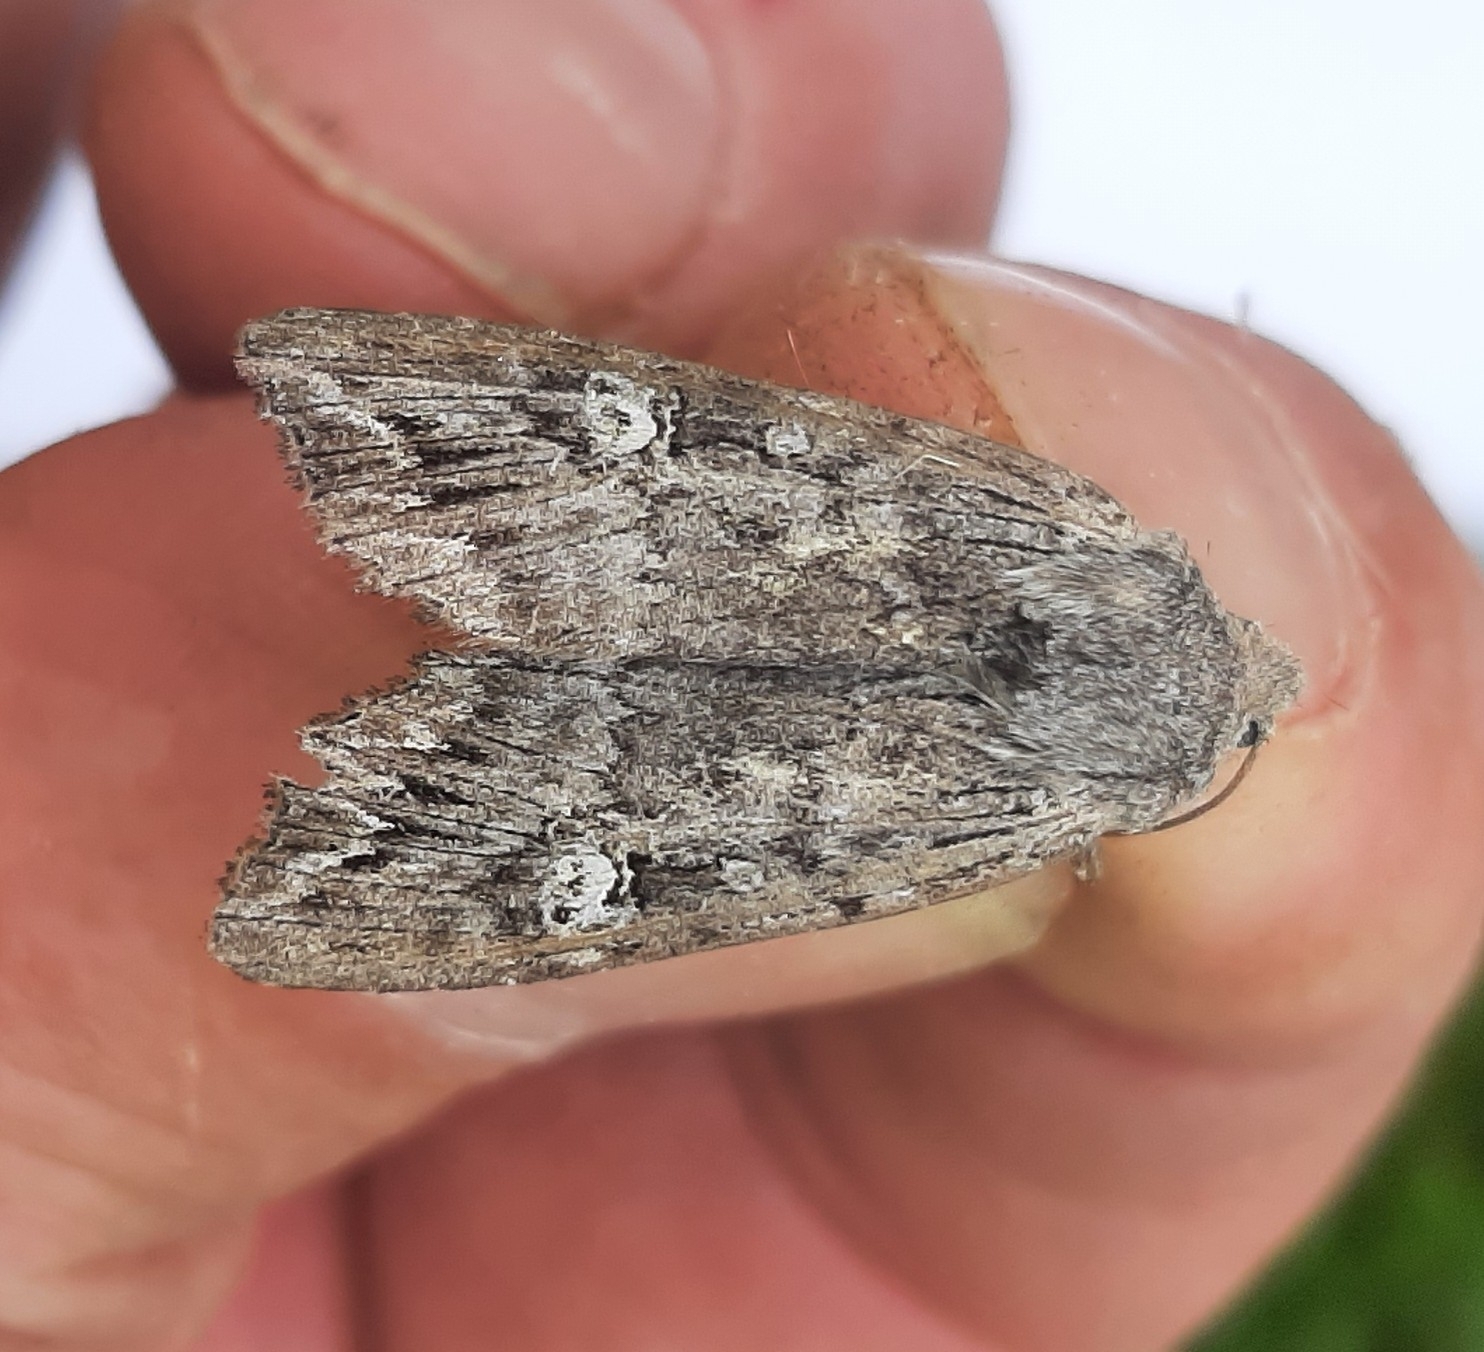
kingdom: Animalia
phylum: Arthropoda
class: Insecta
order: Lepidoptera
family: Noctuidae
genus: Xylena
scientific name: Xylena solidaginis
